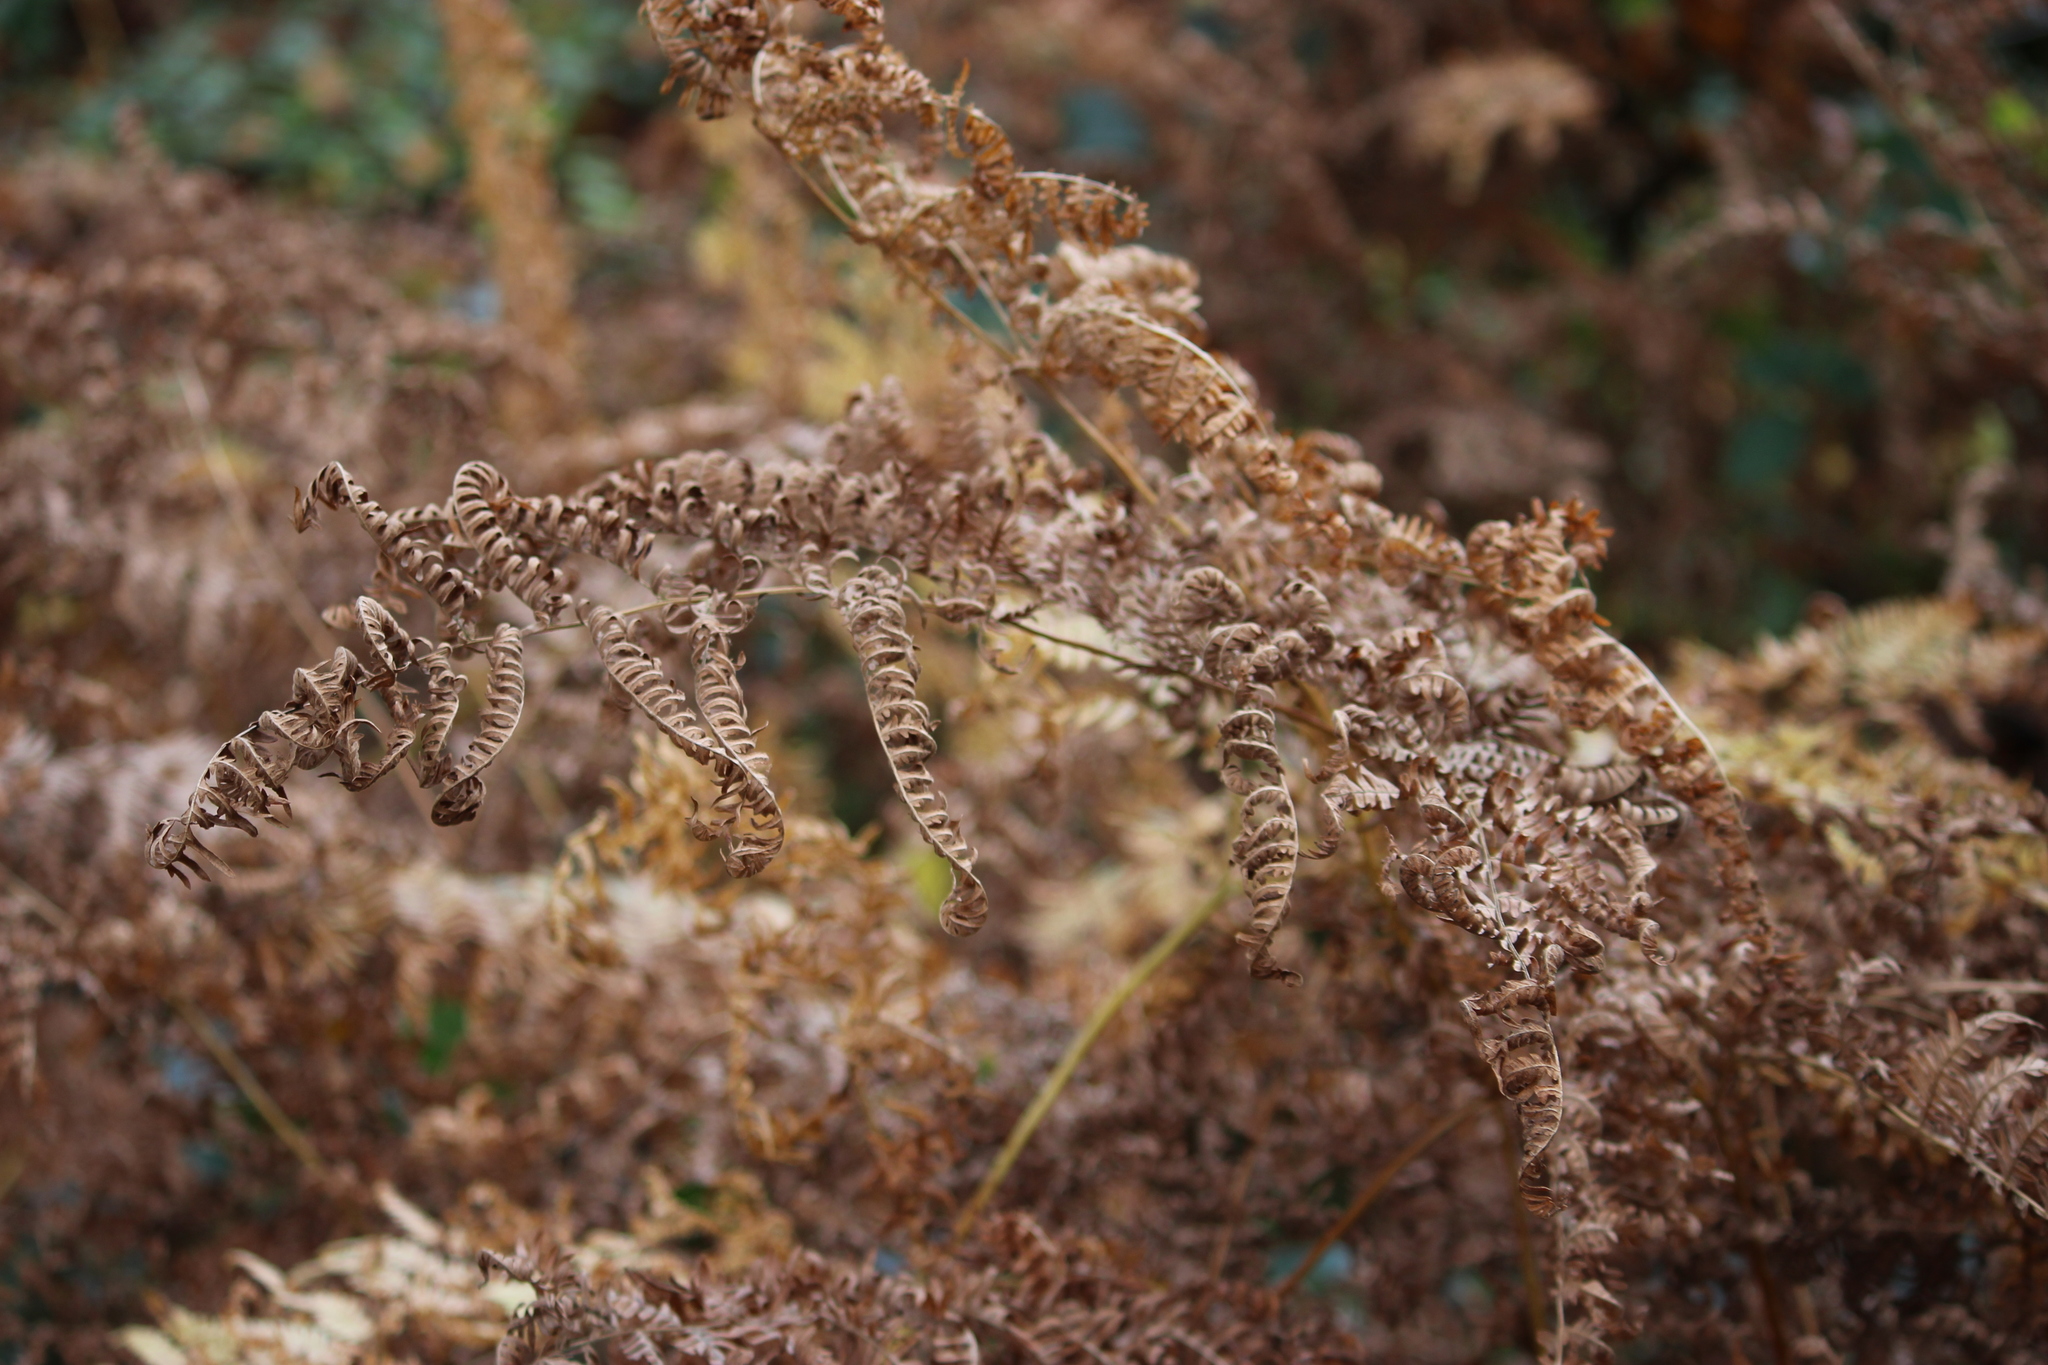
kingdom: Plantae
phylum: Tracheophyta
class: Polypodiopsida
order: Polypodiales
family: Dennstaedtiaceae
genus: Pteridium
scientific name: Pteridium aquilinum
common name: Bracken
